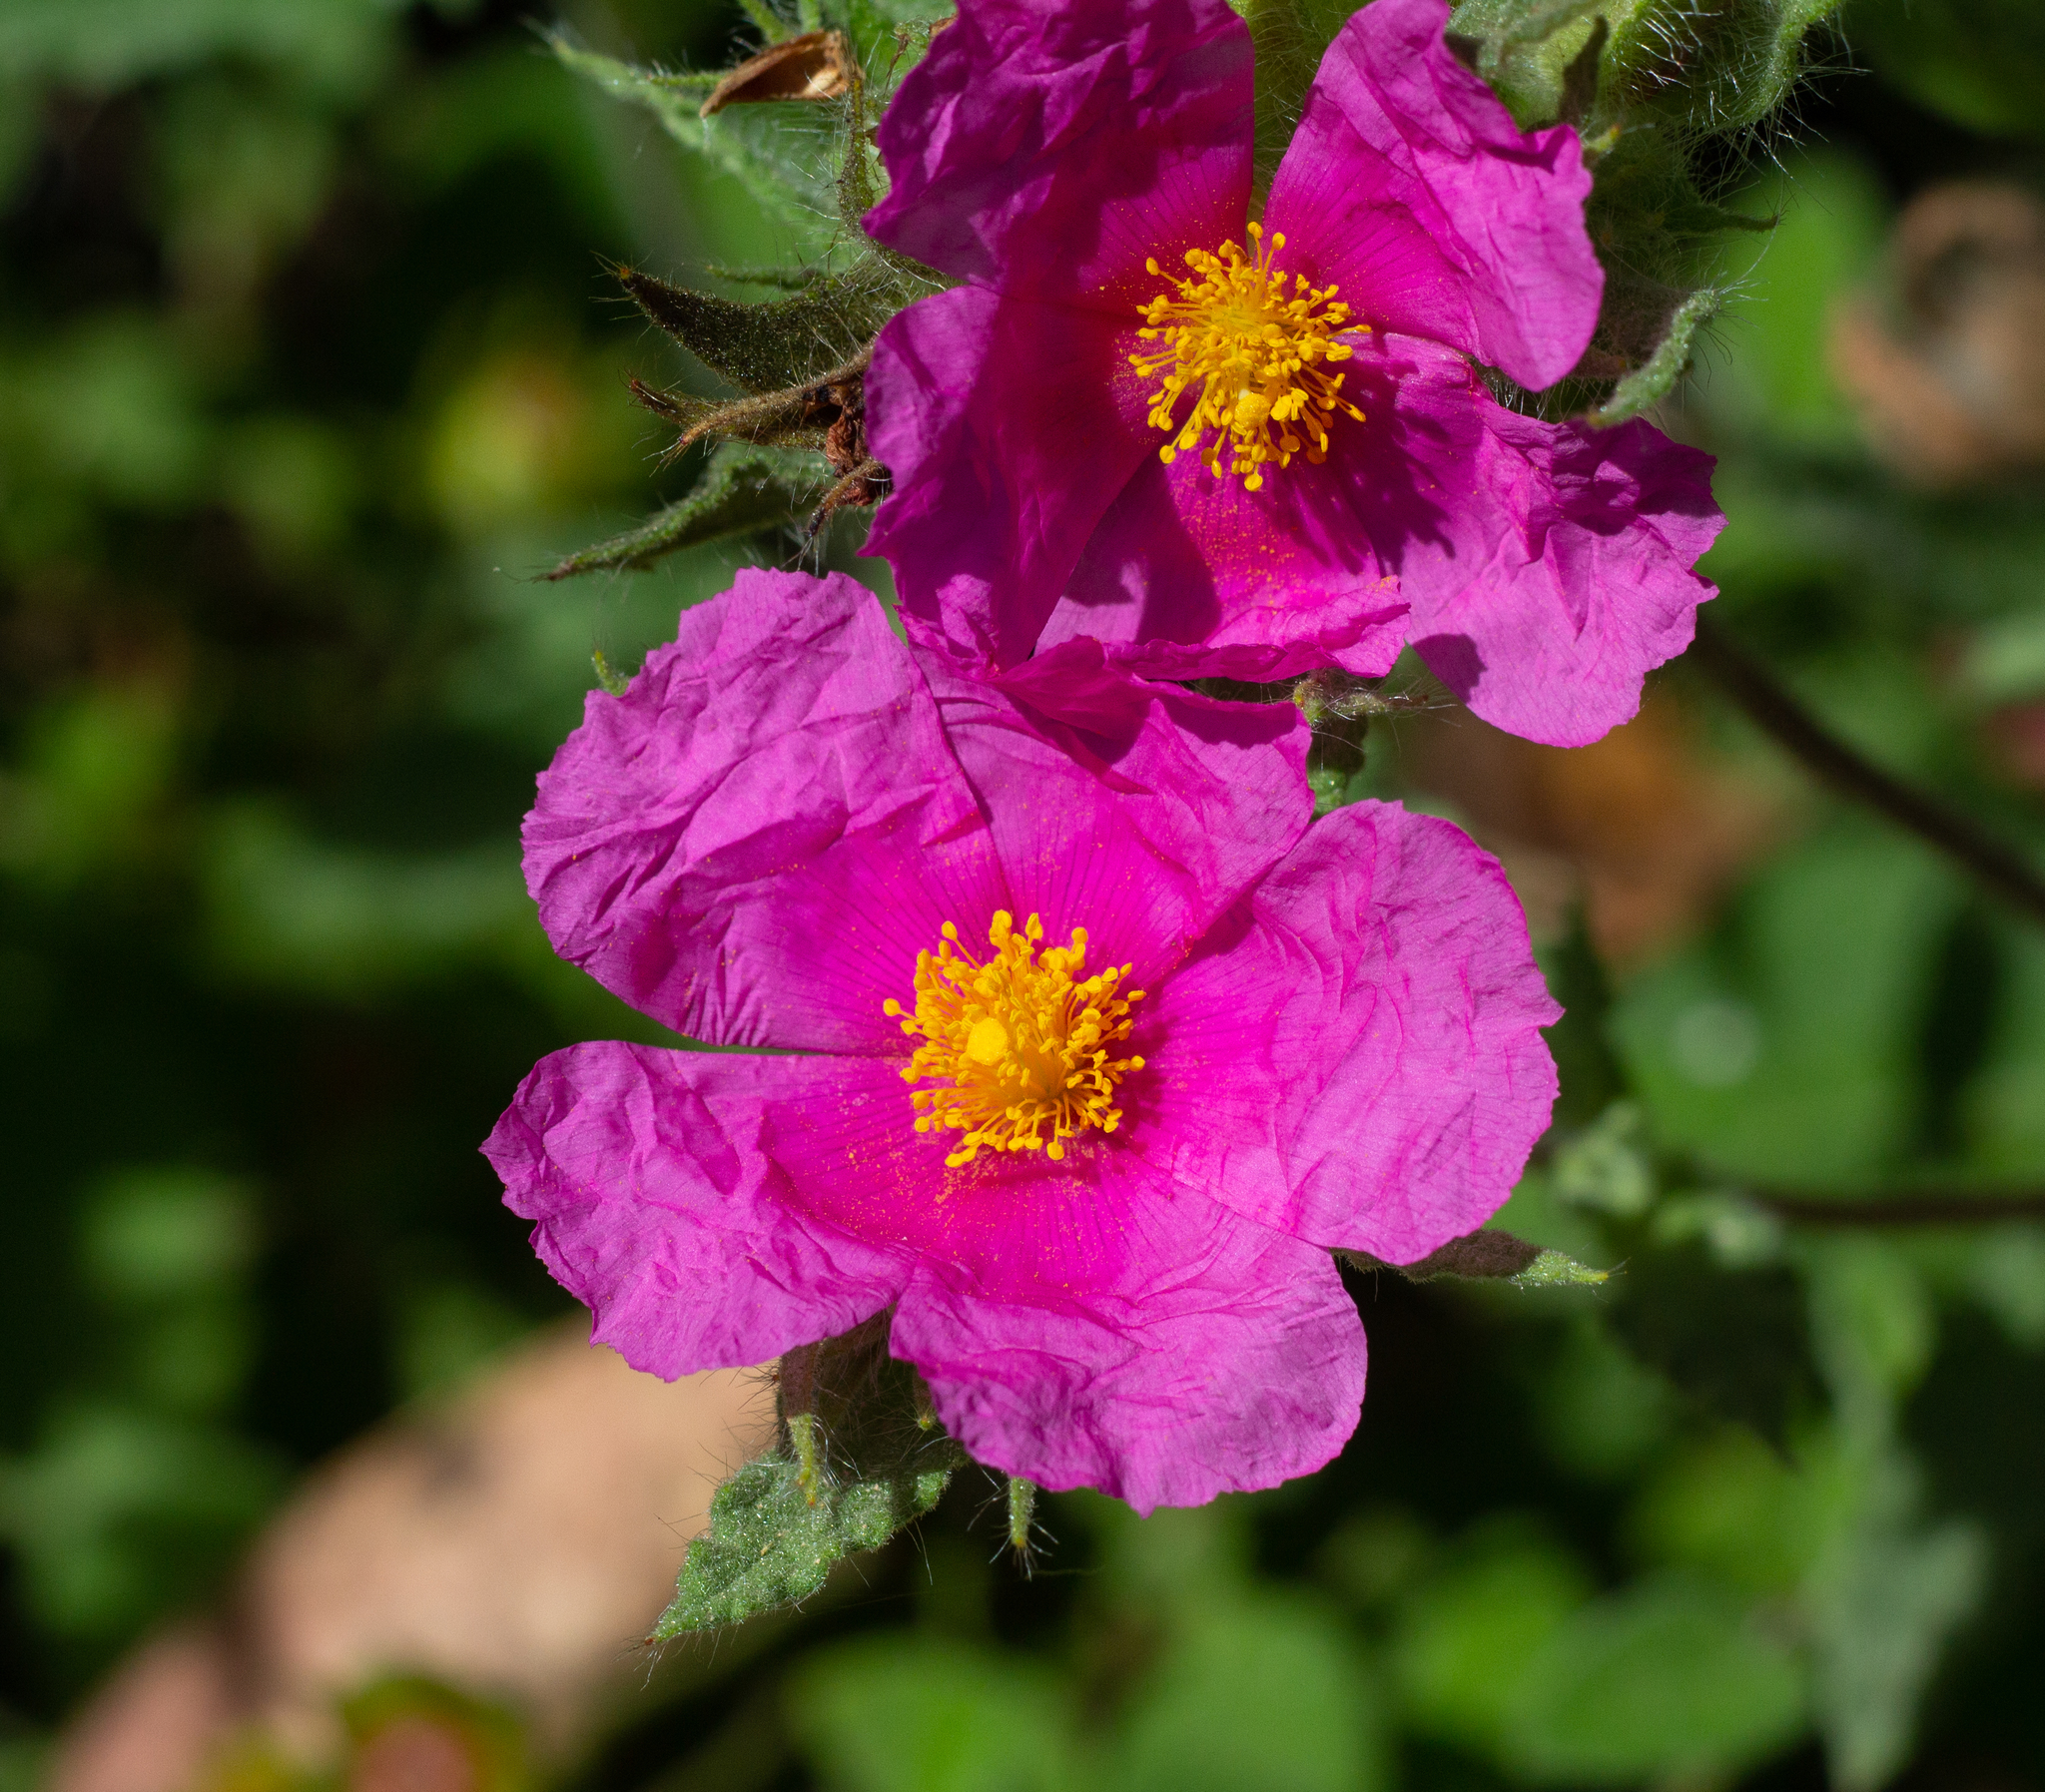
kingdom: Plantae
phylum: Tracheophyta
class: Magnoliopsida
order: Malvales
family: Cistaceae
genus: Cistus
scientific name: Cistus crispus
